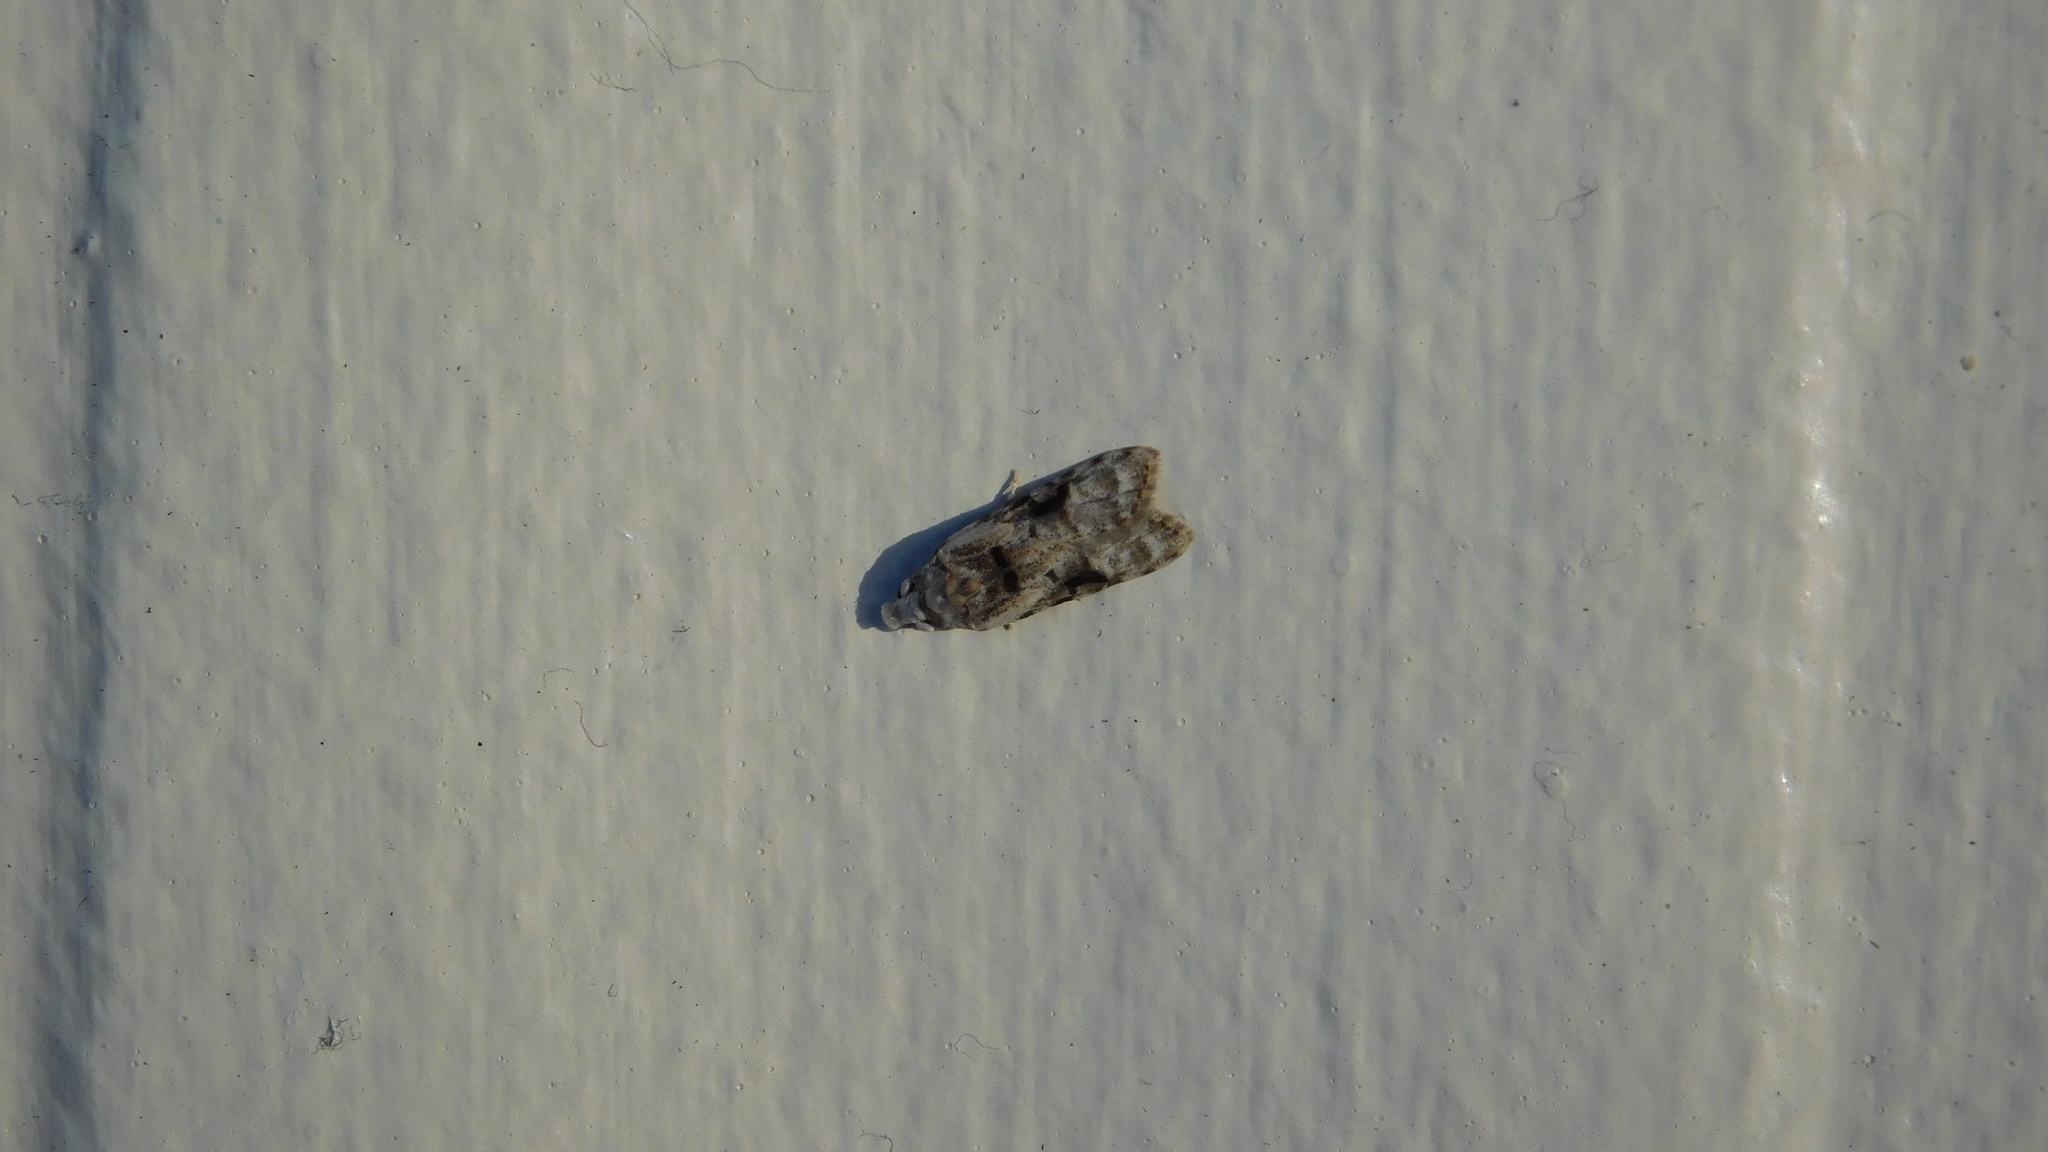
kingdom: Animalia
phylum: Arthropoda
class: Insecta
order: Lepidoptera
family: Carposinidae
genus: Coscinoptycha
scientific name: Coscinoptycha improbana
